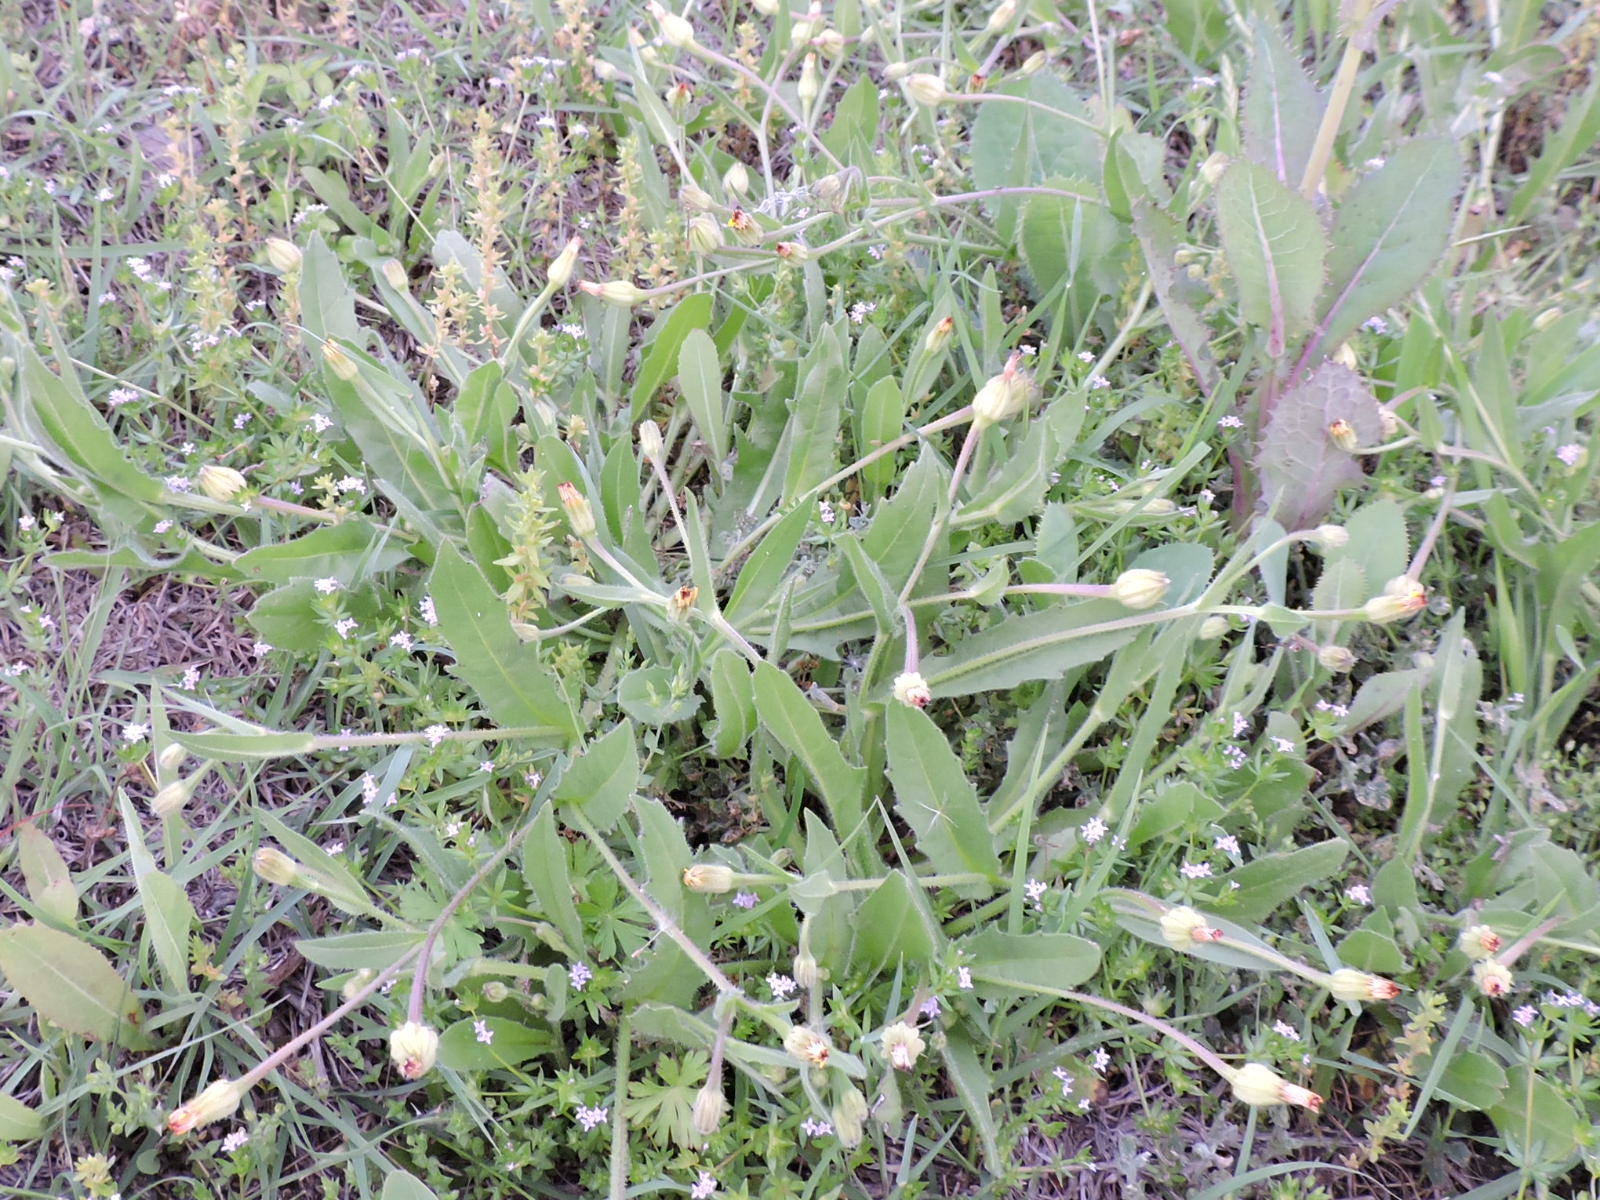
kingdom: Plantae
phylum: Tracheophyta
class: Magnoliopsida
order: Asterales
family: Asteraceae
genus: Hedypnois
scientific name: Hedypnois rhagadioloides
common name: Cretan weed
